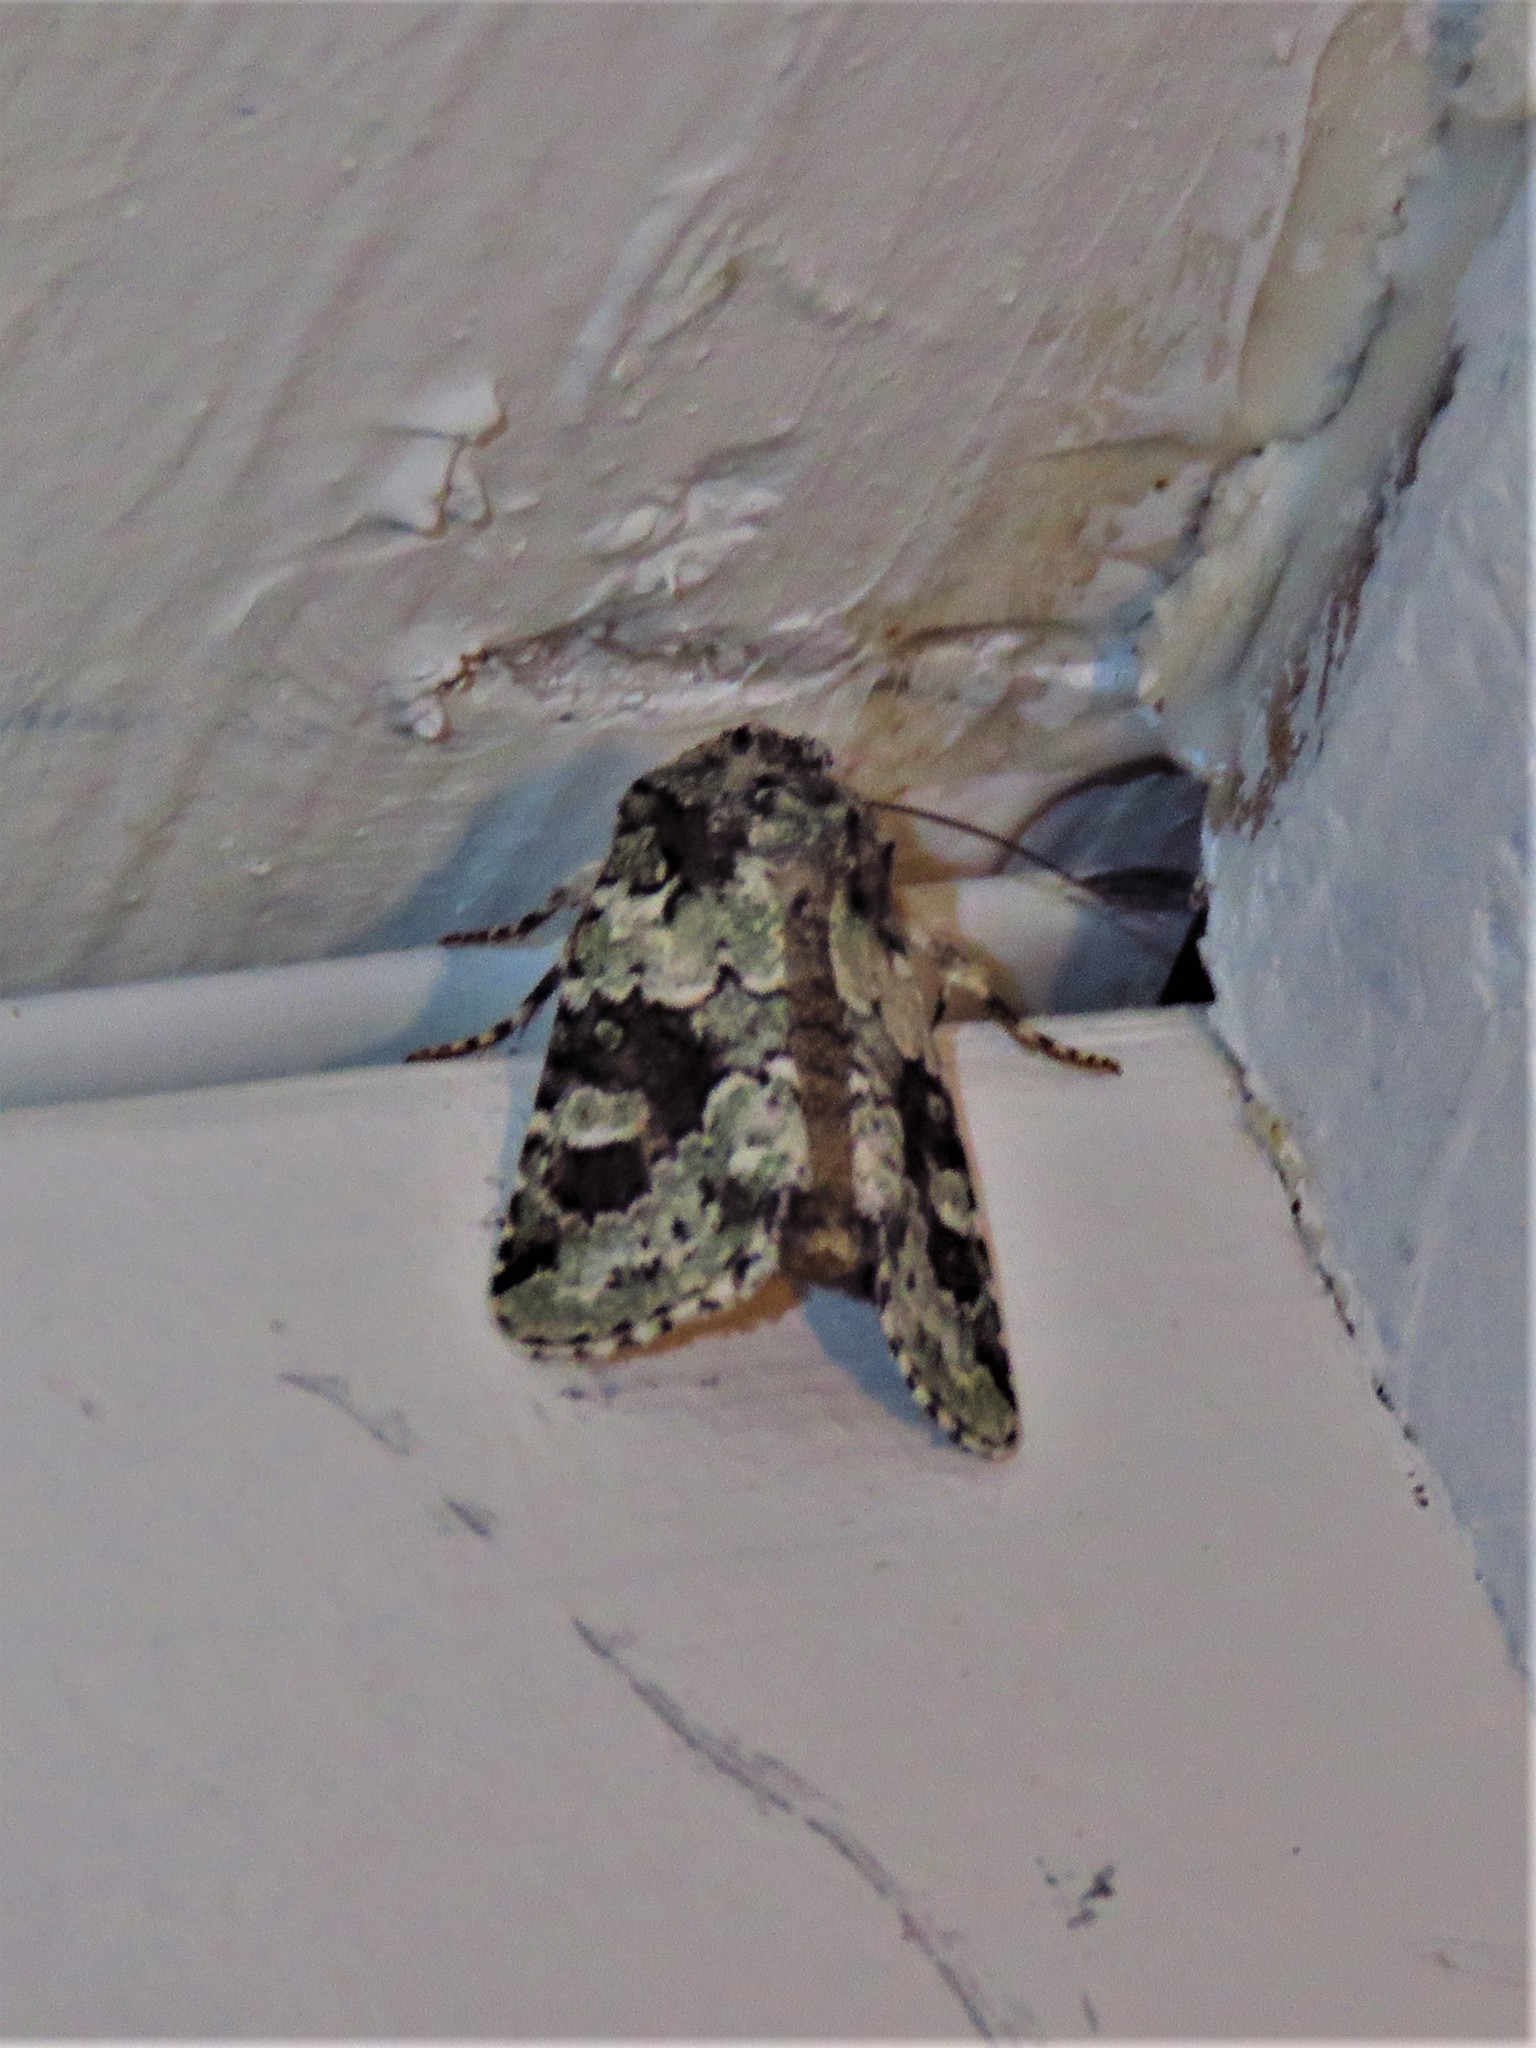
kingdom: Animalia
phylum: Arthropoda
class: Insecta
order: Lepidoptera
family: Noctuidae
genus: Lacinipolia
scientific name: Lacinipolia laudabilis
